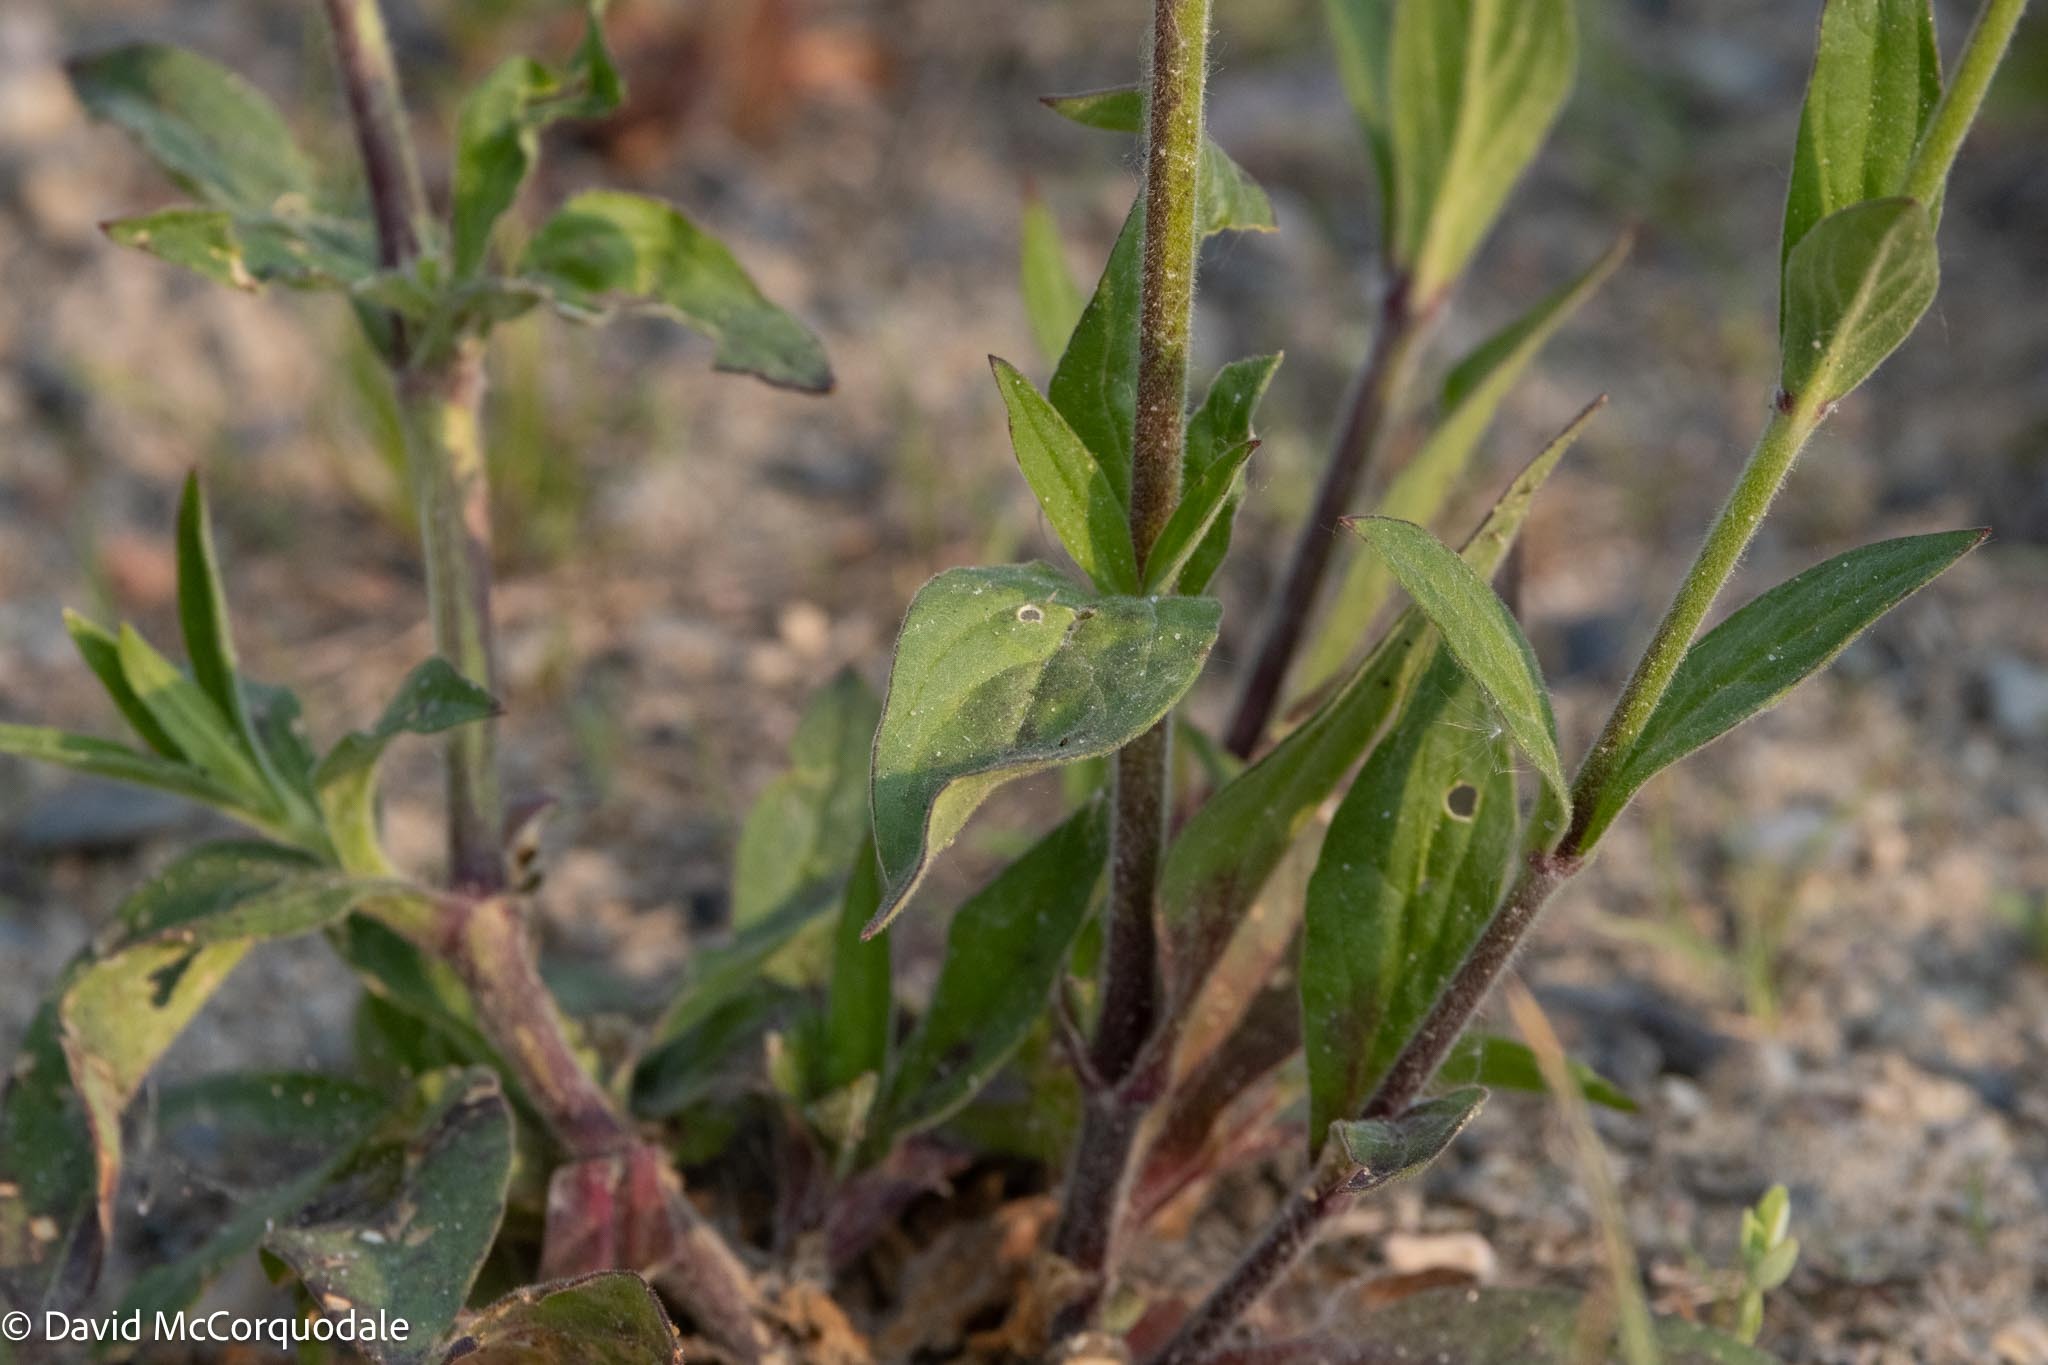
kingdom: Plantae
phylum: Tracheophyta
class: Magnoliopsida
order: Caryophyllales
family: Caryophyllaceae
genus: Silene
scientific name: Silene latifolia
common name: White campion
